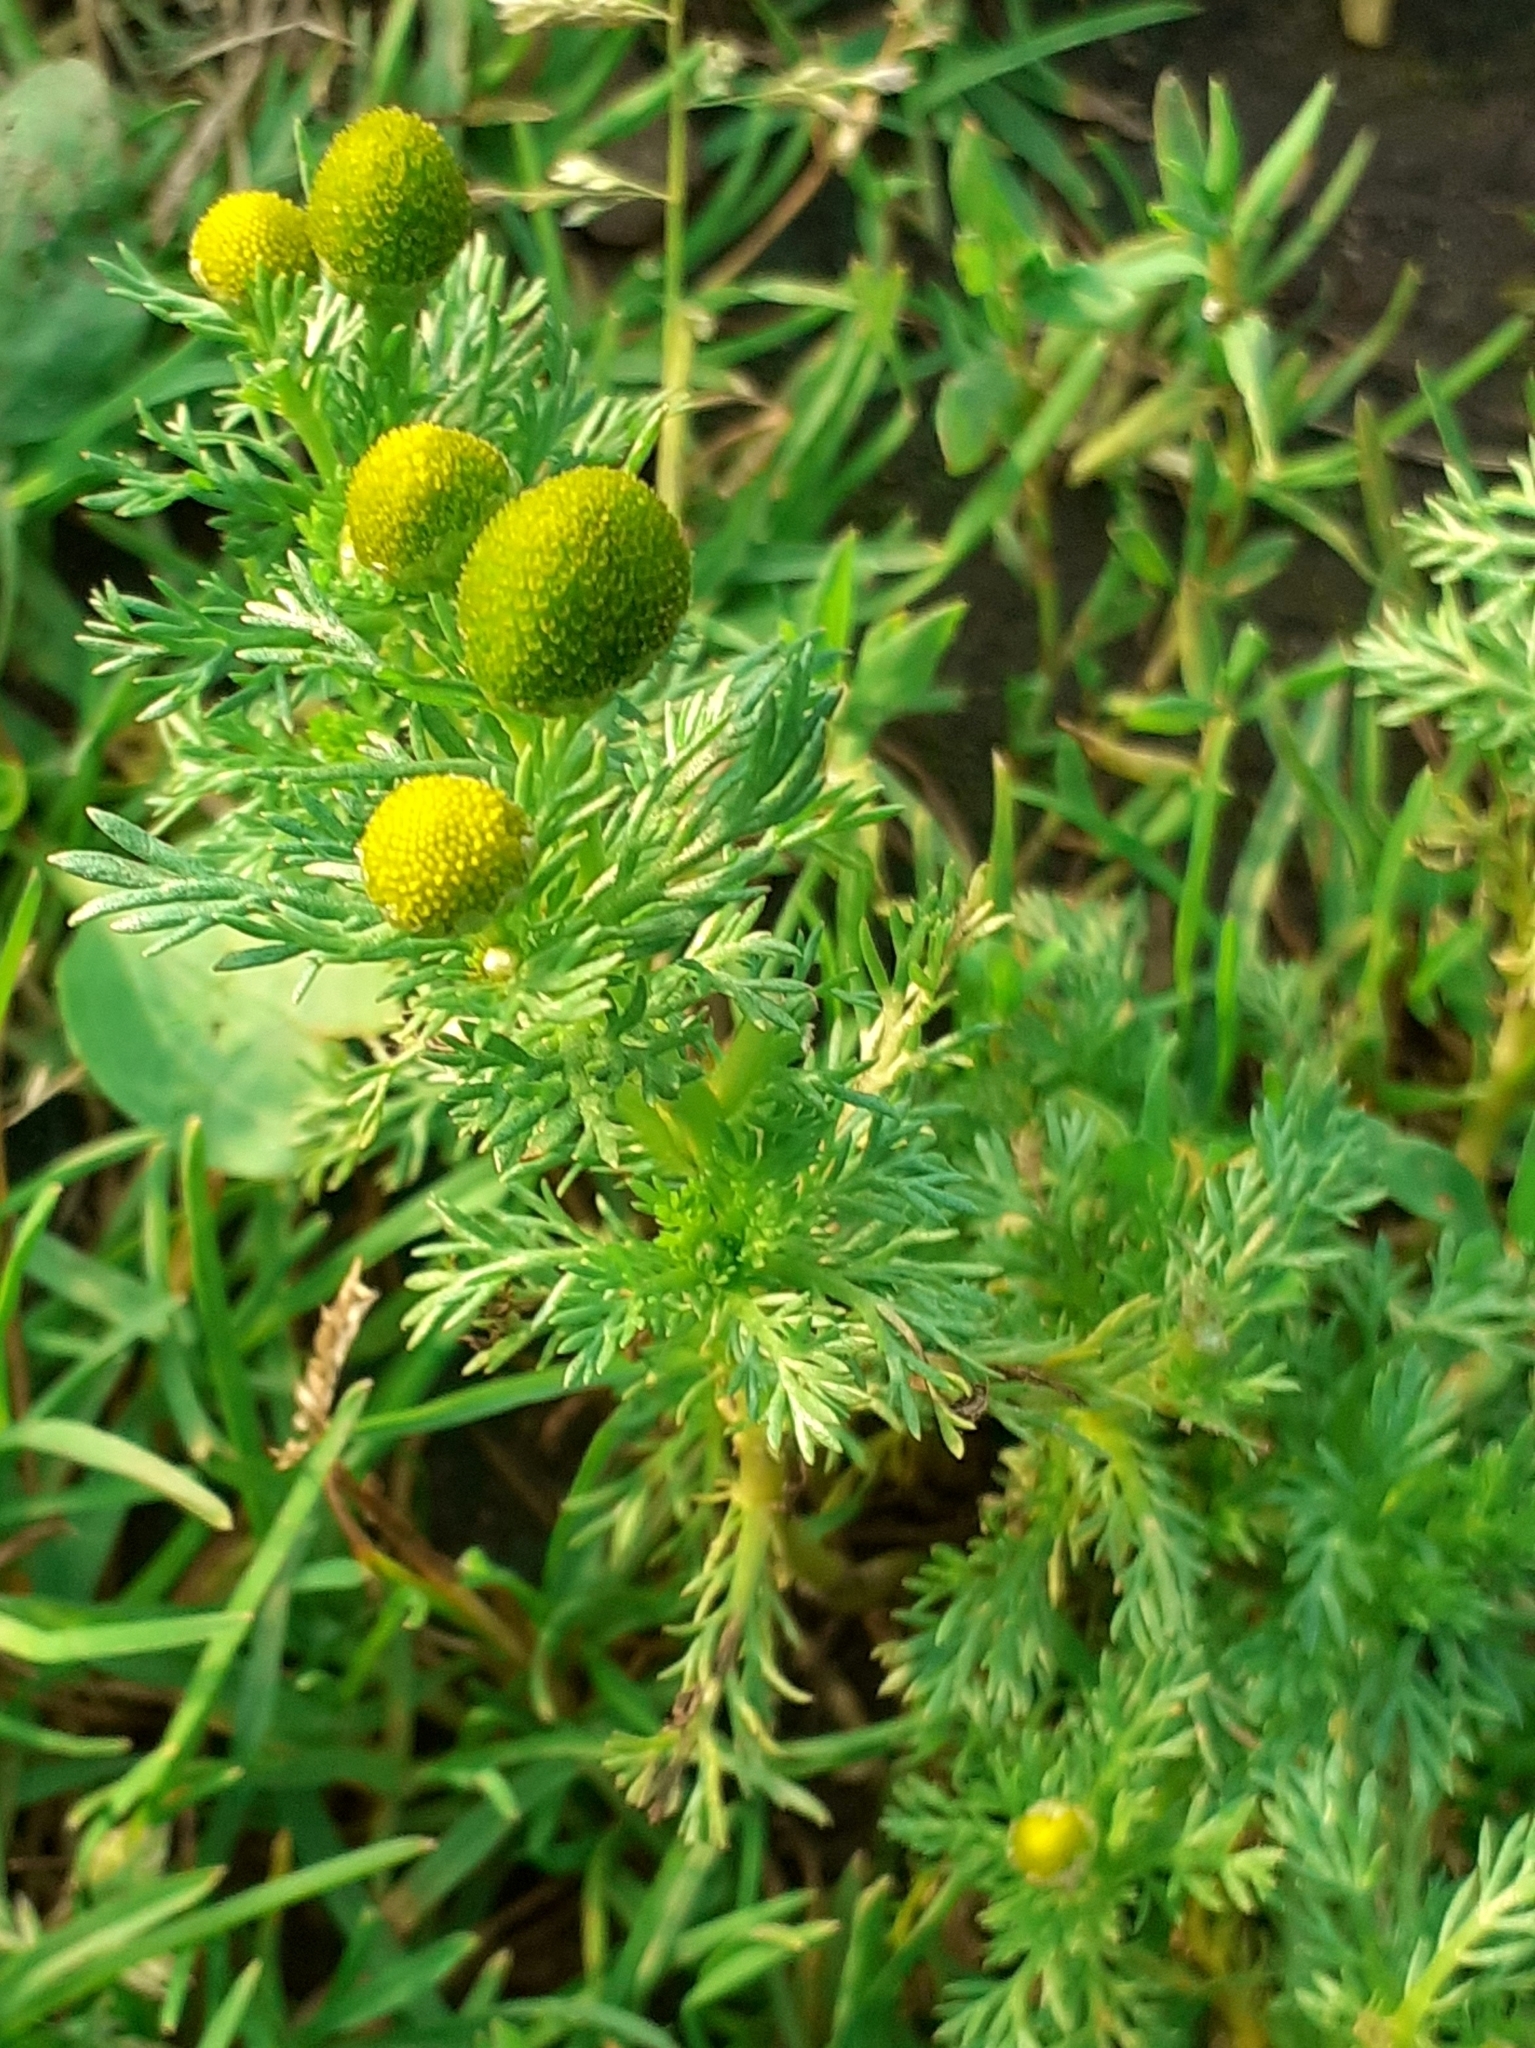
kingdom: Plantae
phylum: Tracheophyta
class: Magnoliopsida
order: Asterales
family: Asteraceae
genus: Matricaria
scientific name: Matricaria discoidea
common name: Disc mayweed
